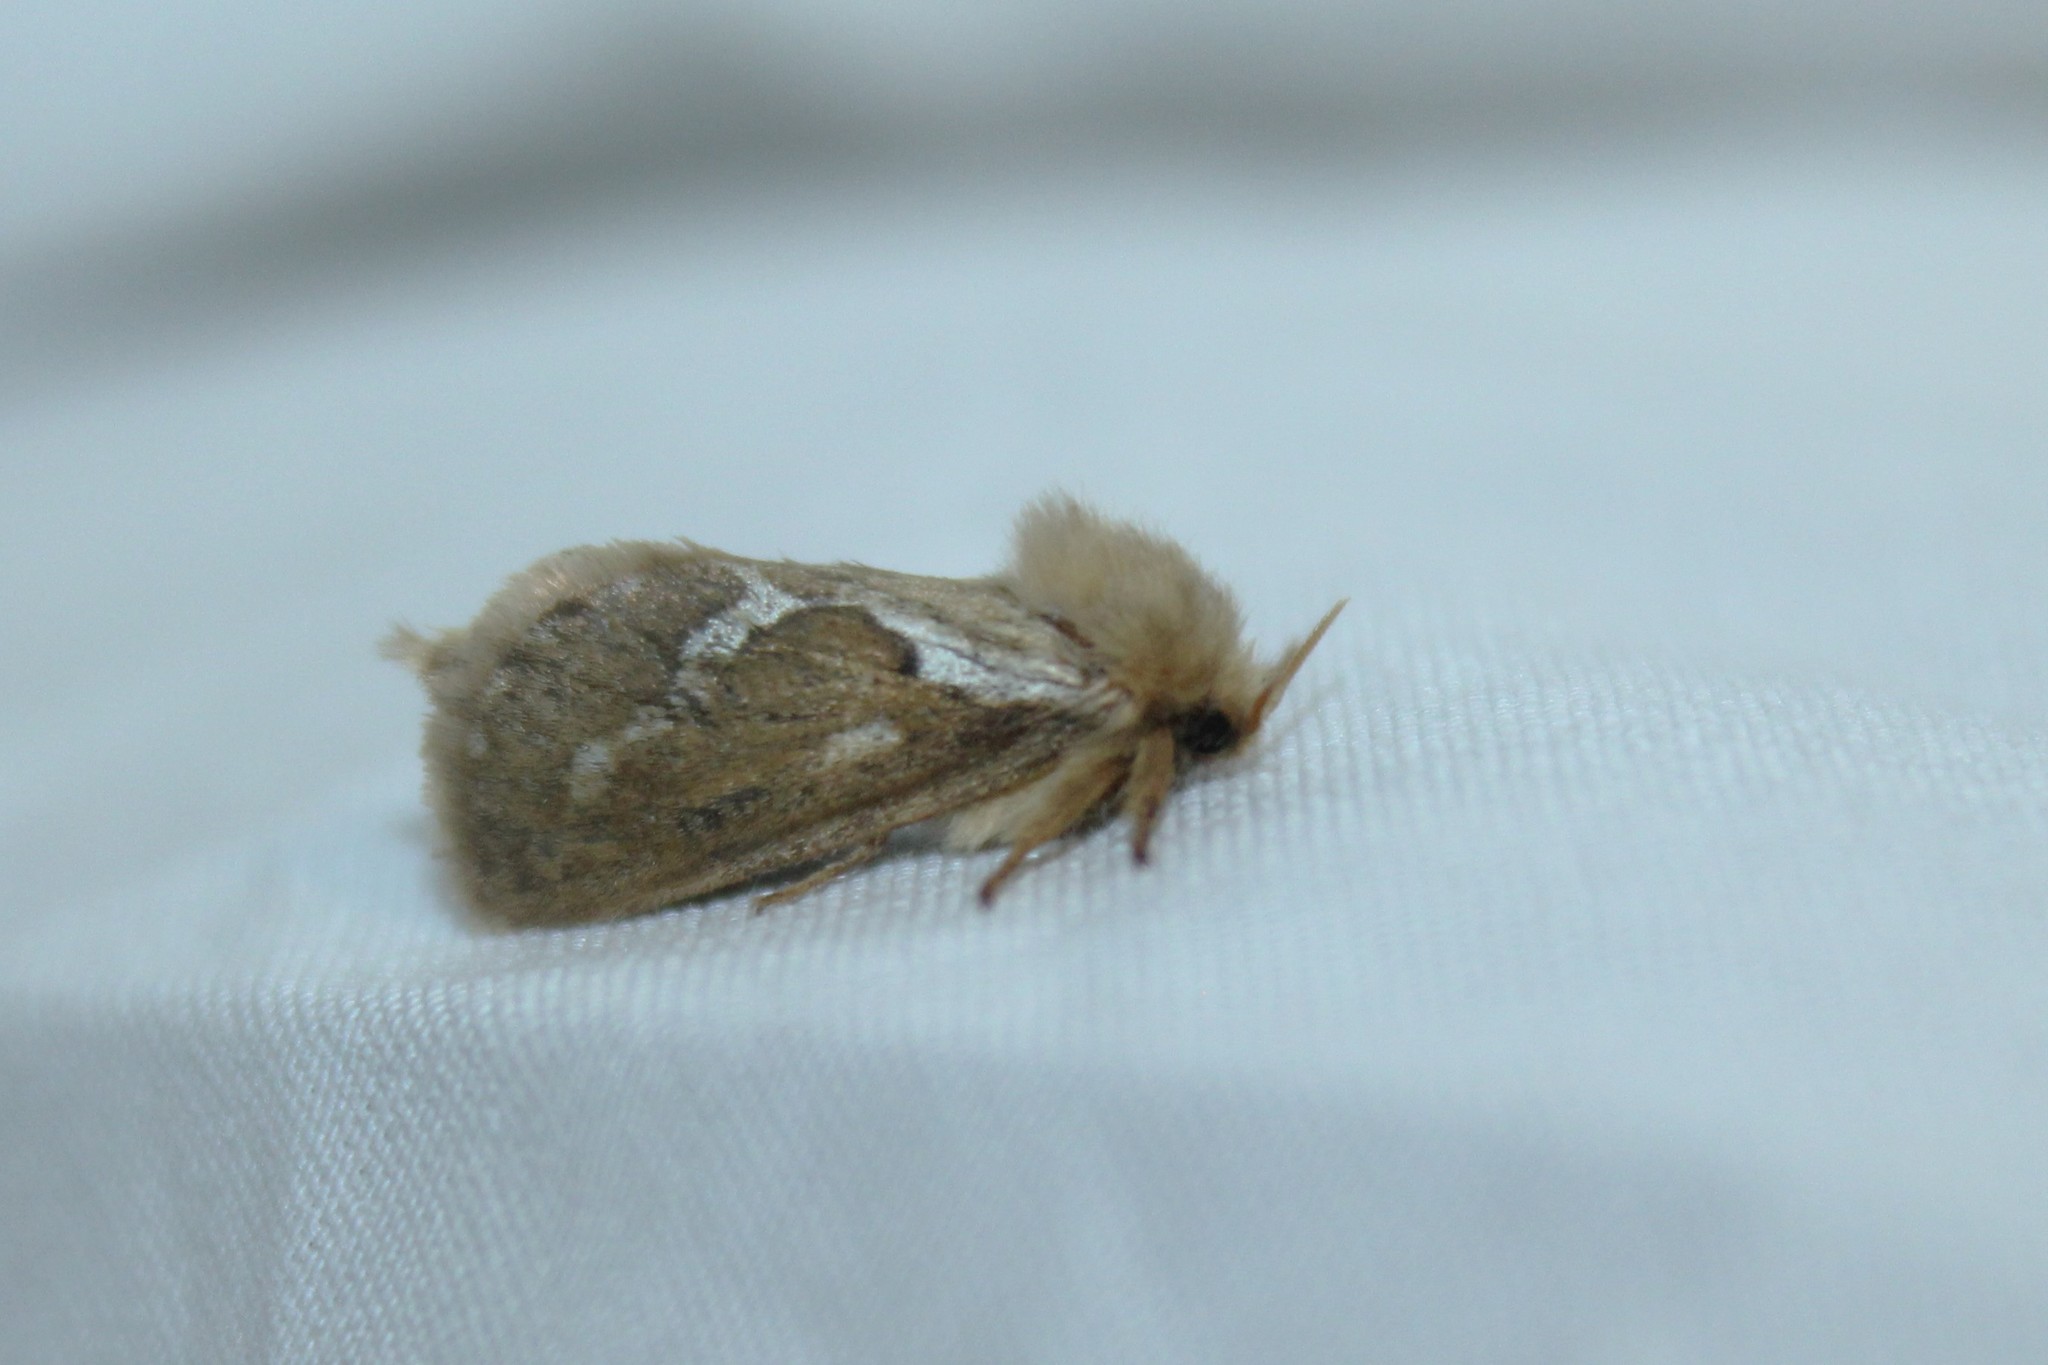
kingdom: Animalia
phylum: Arthropoda
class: Insecta
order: Lepidoptera
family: Hepialidae
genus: Korscheltellus
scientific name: Korscheltellus lupulina
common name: Common swift
